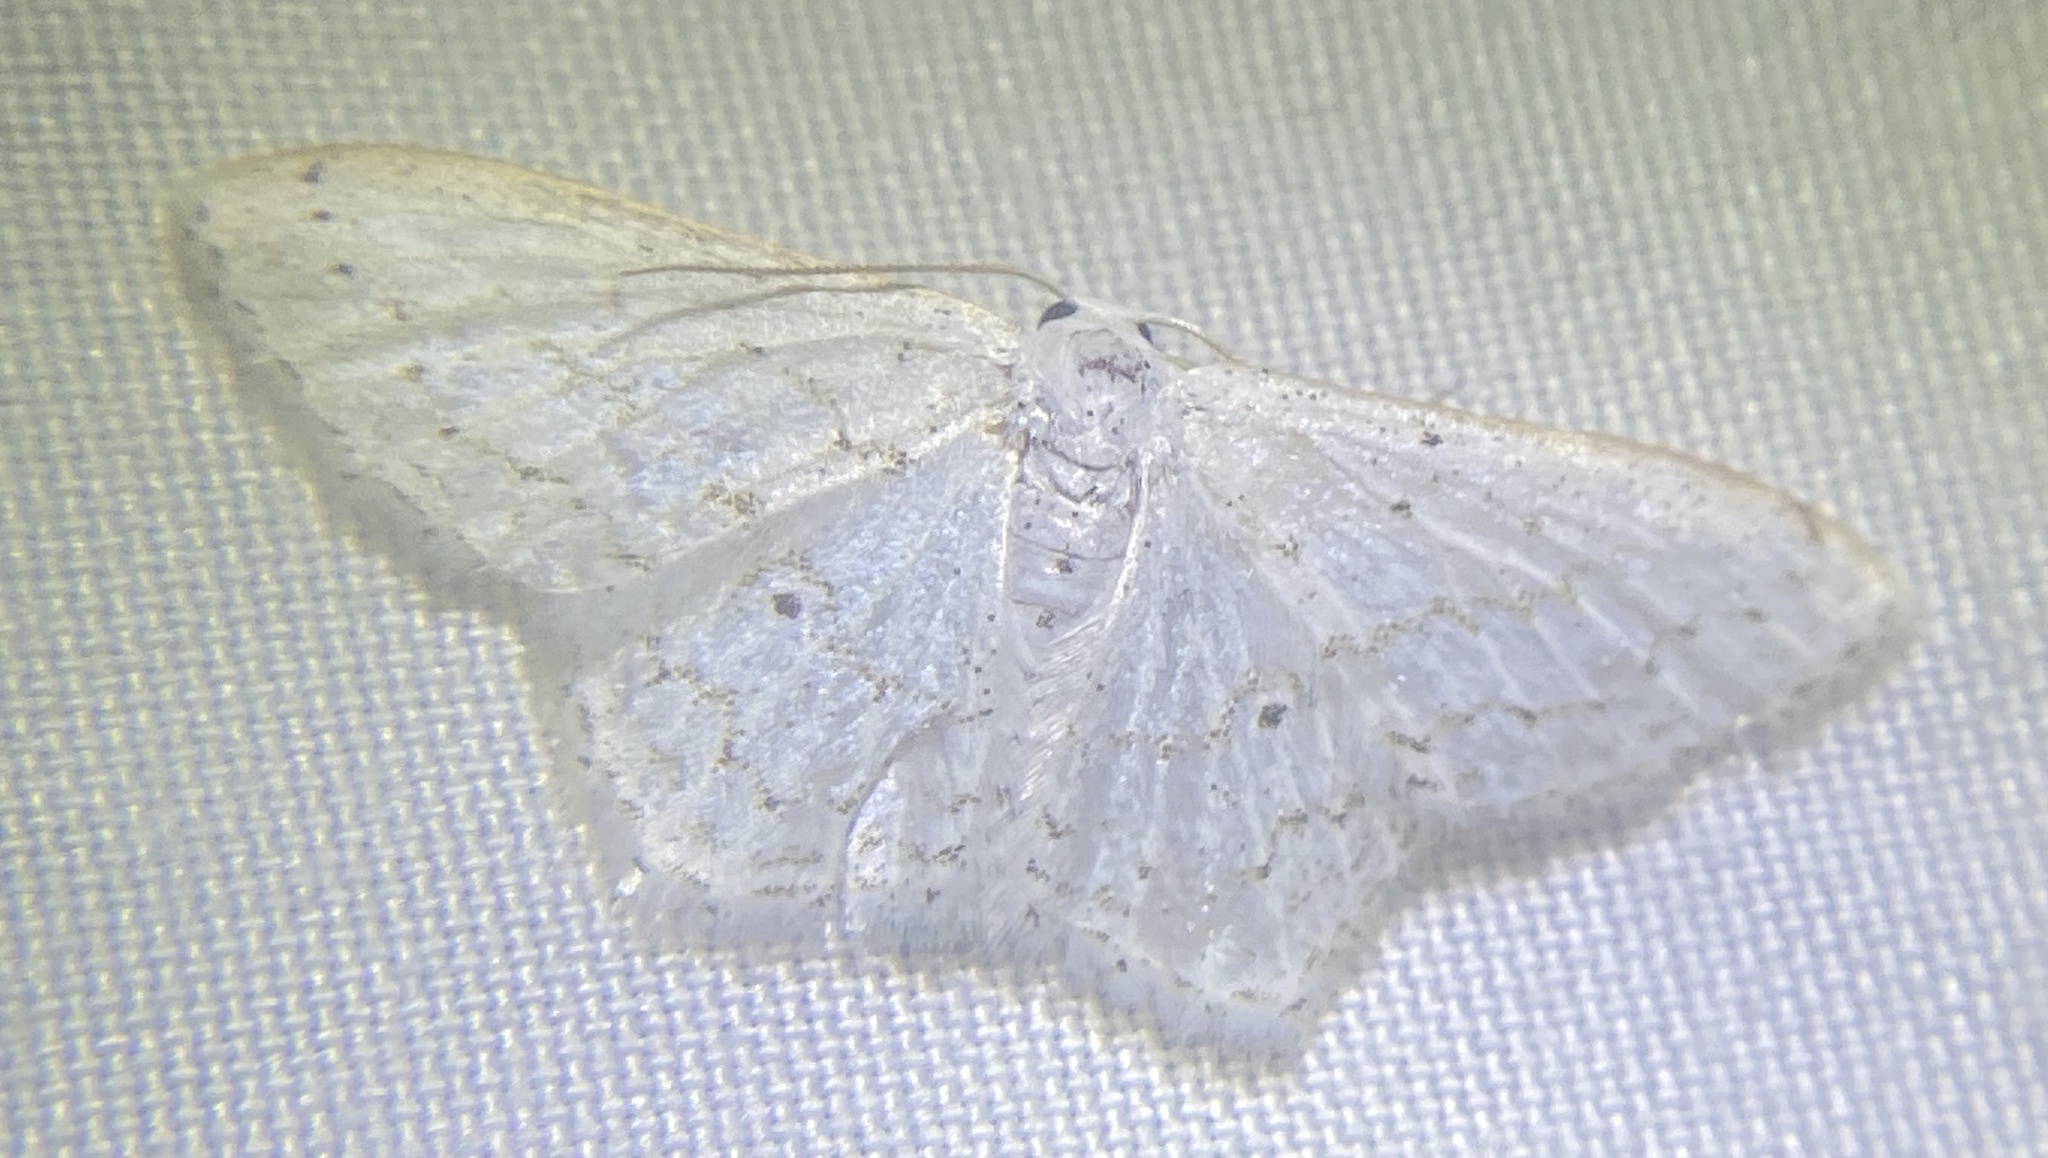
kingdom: Animalia
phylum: Arthropoda
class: Insecta
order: Lepidoptera
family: Geometridae
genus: Idaea
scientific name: Idaea tacturata
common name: Dot-lined wave
